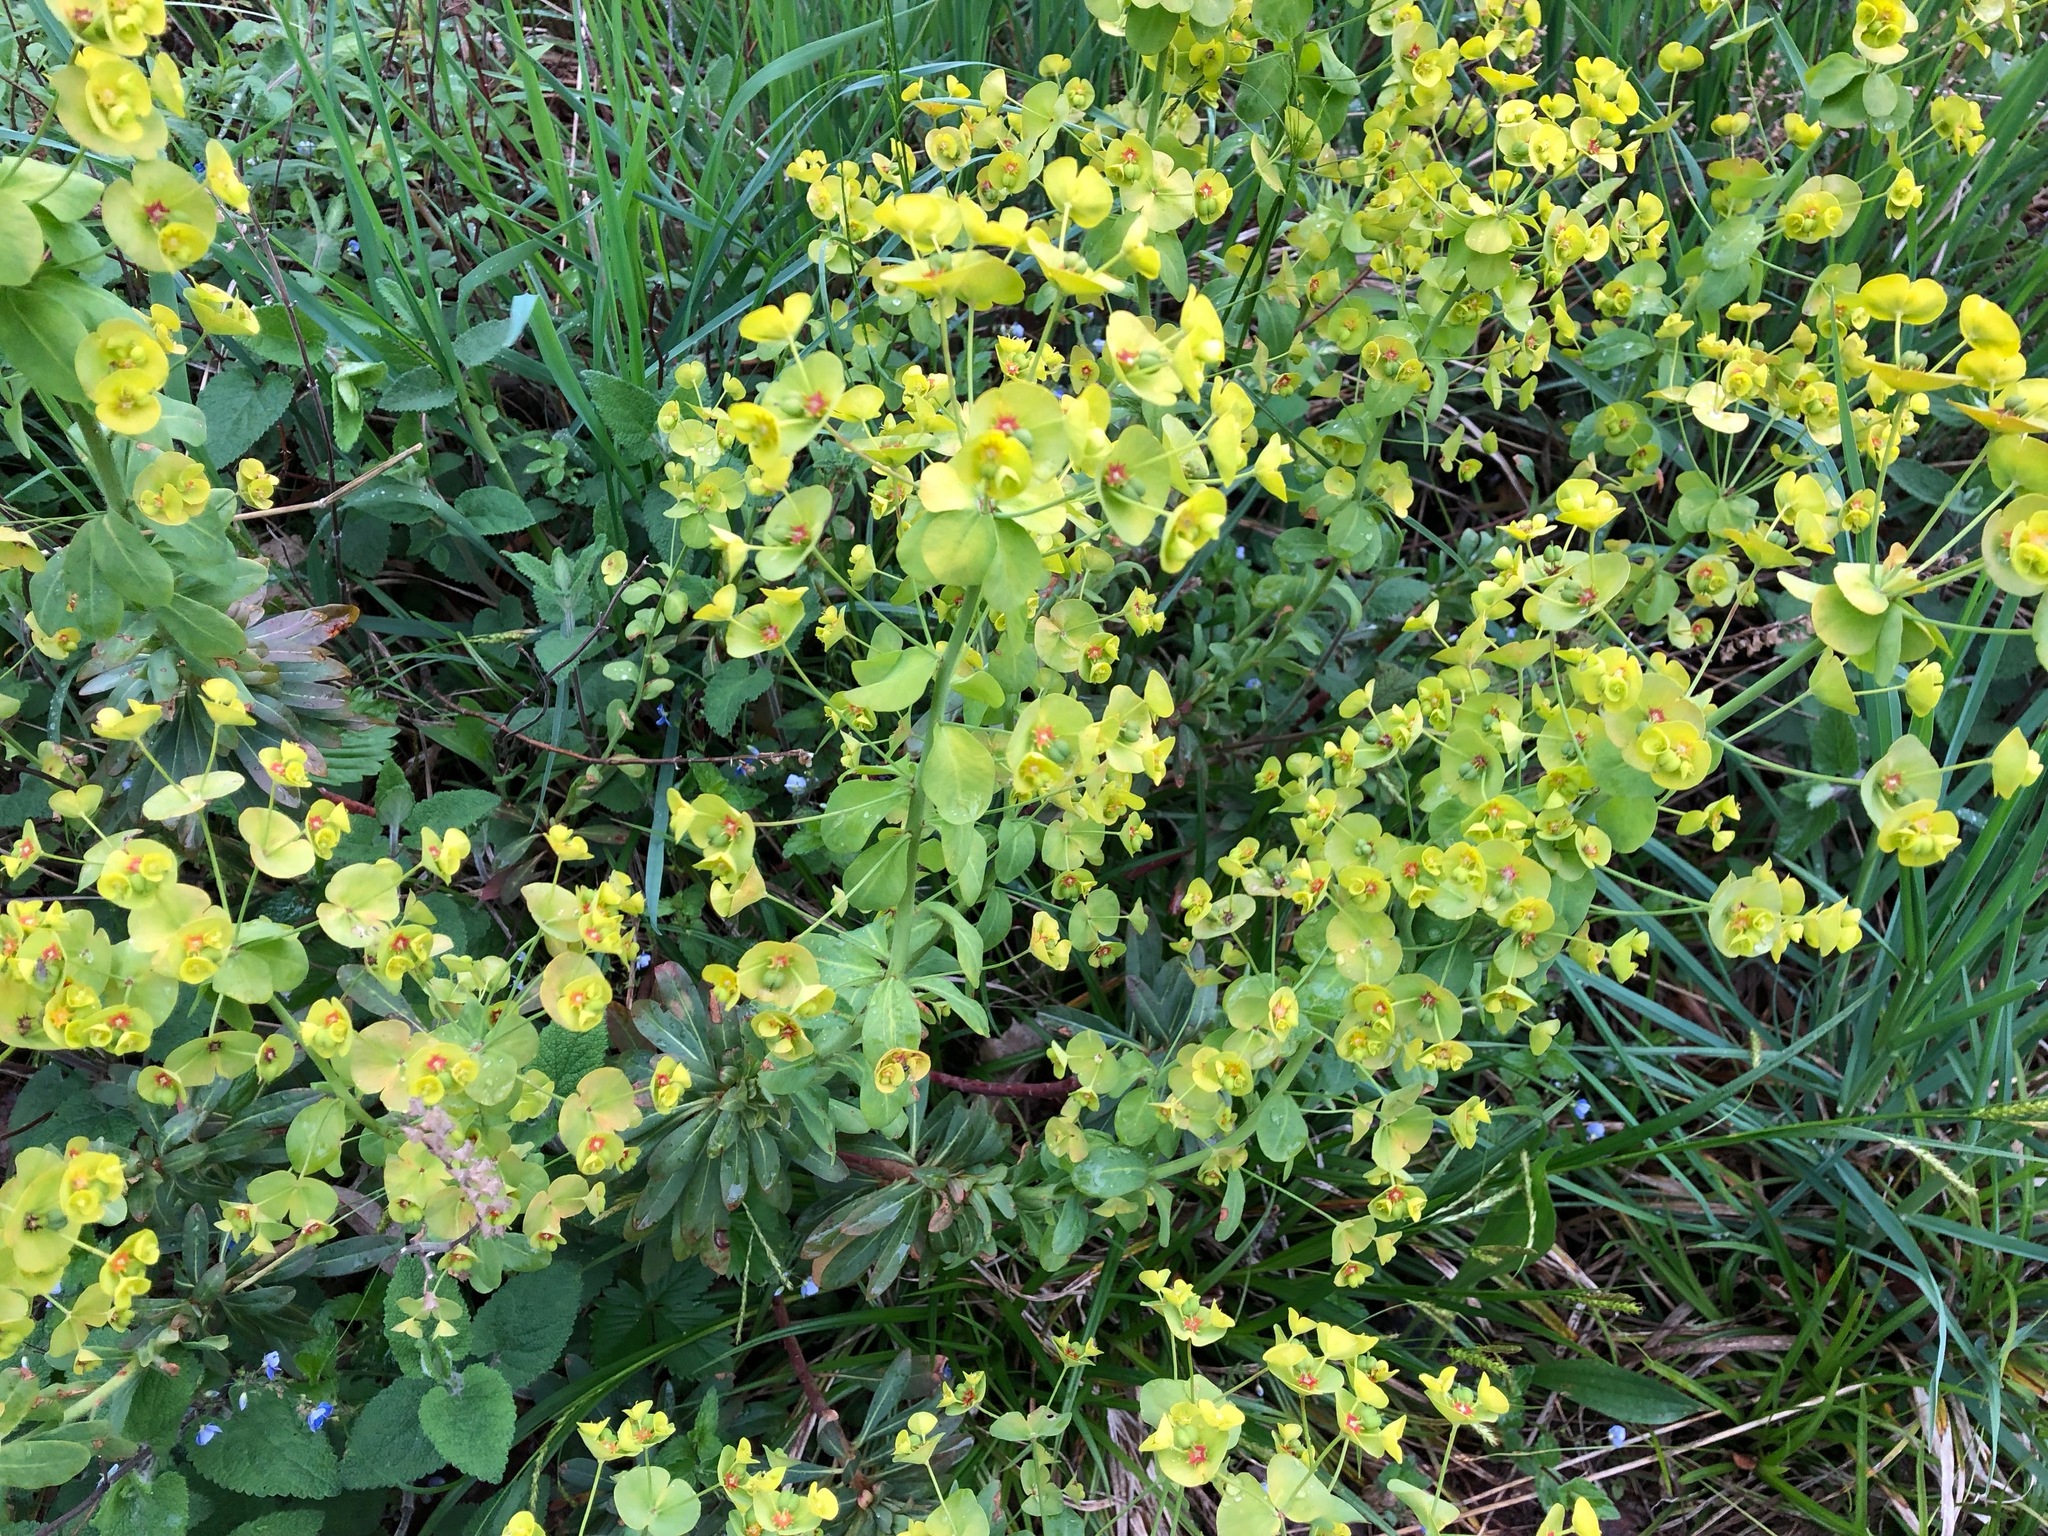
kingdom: Plantae
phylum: Tracheophyta
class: Magnoliopsida
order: Malpighiales
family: Euphorbiaceae
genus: Euphorbia
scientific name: Euphorbia amygdaloides
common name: Wood spurge
